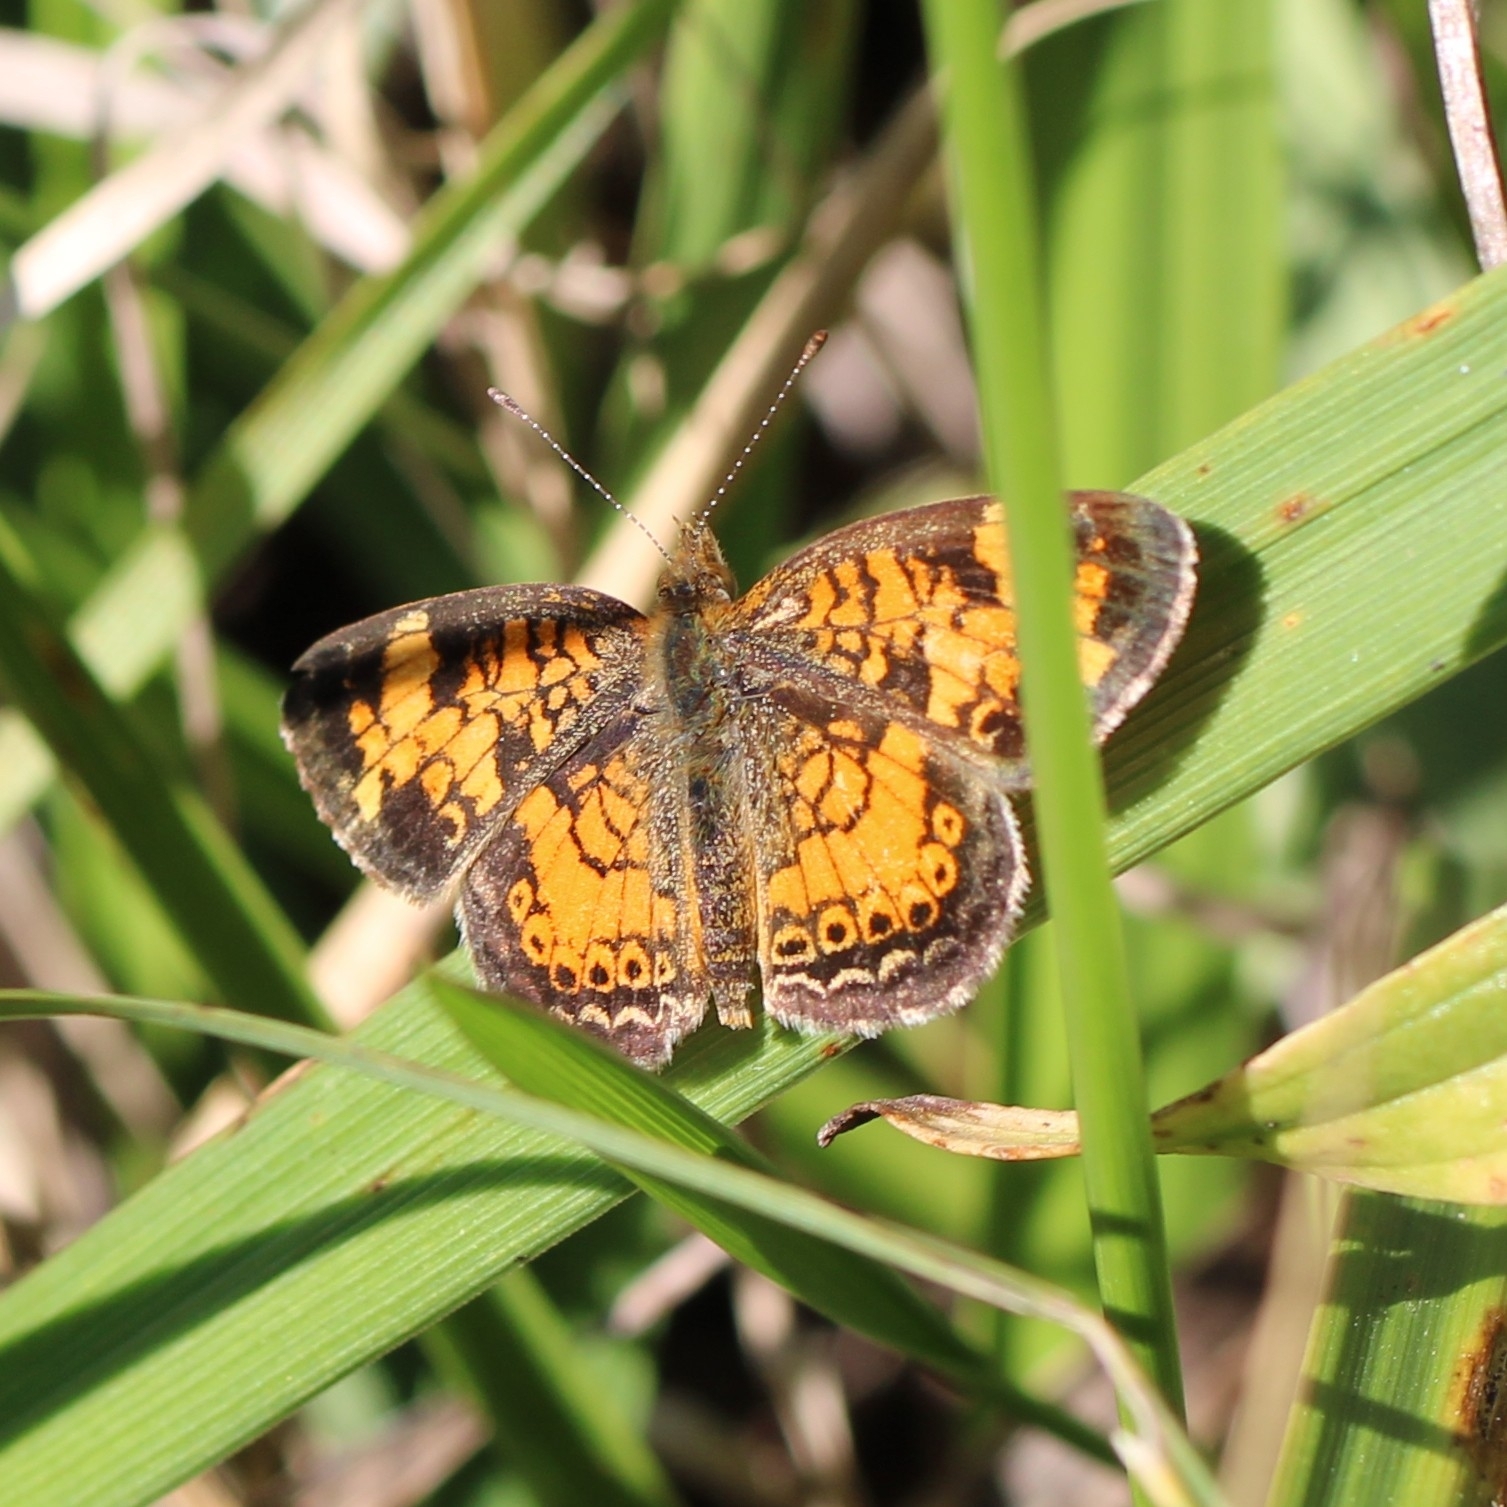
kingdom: Animalia
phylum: Arthropoda
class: Insecta
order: Lepidoptera
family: Nymphalidae
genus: Phyciodes
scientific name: Phyciodes tharos
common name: Pearl crescent
